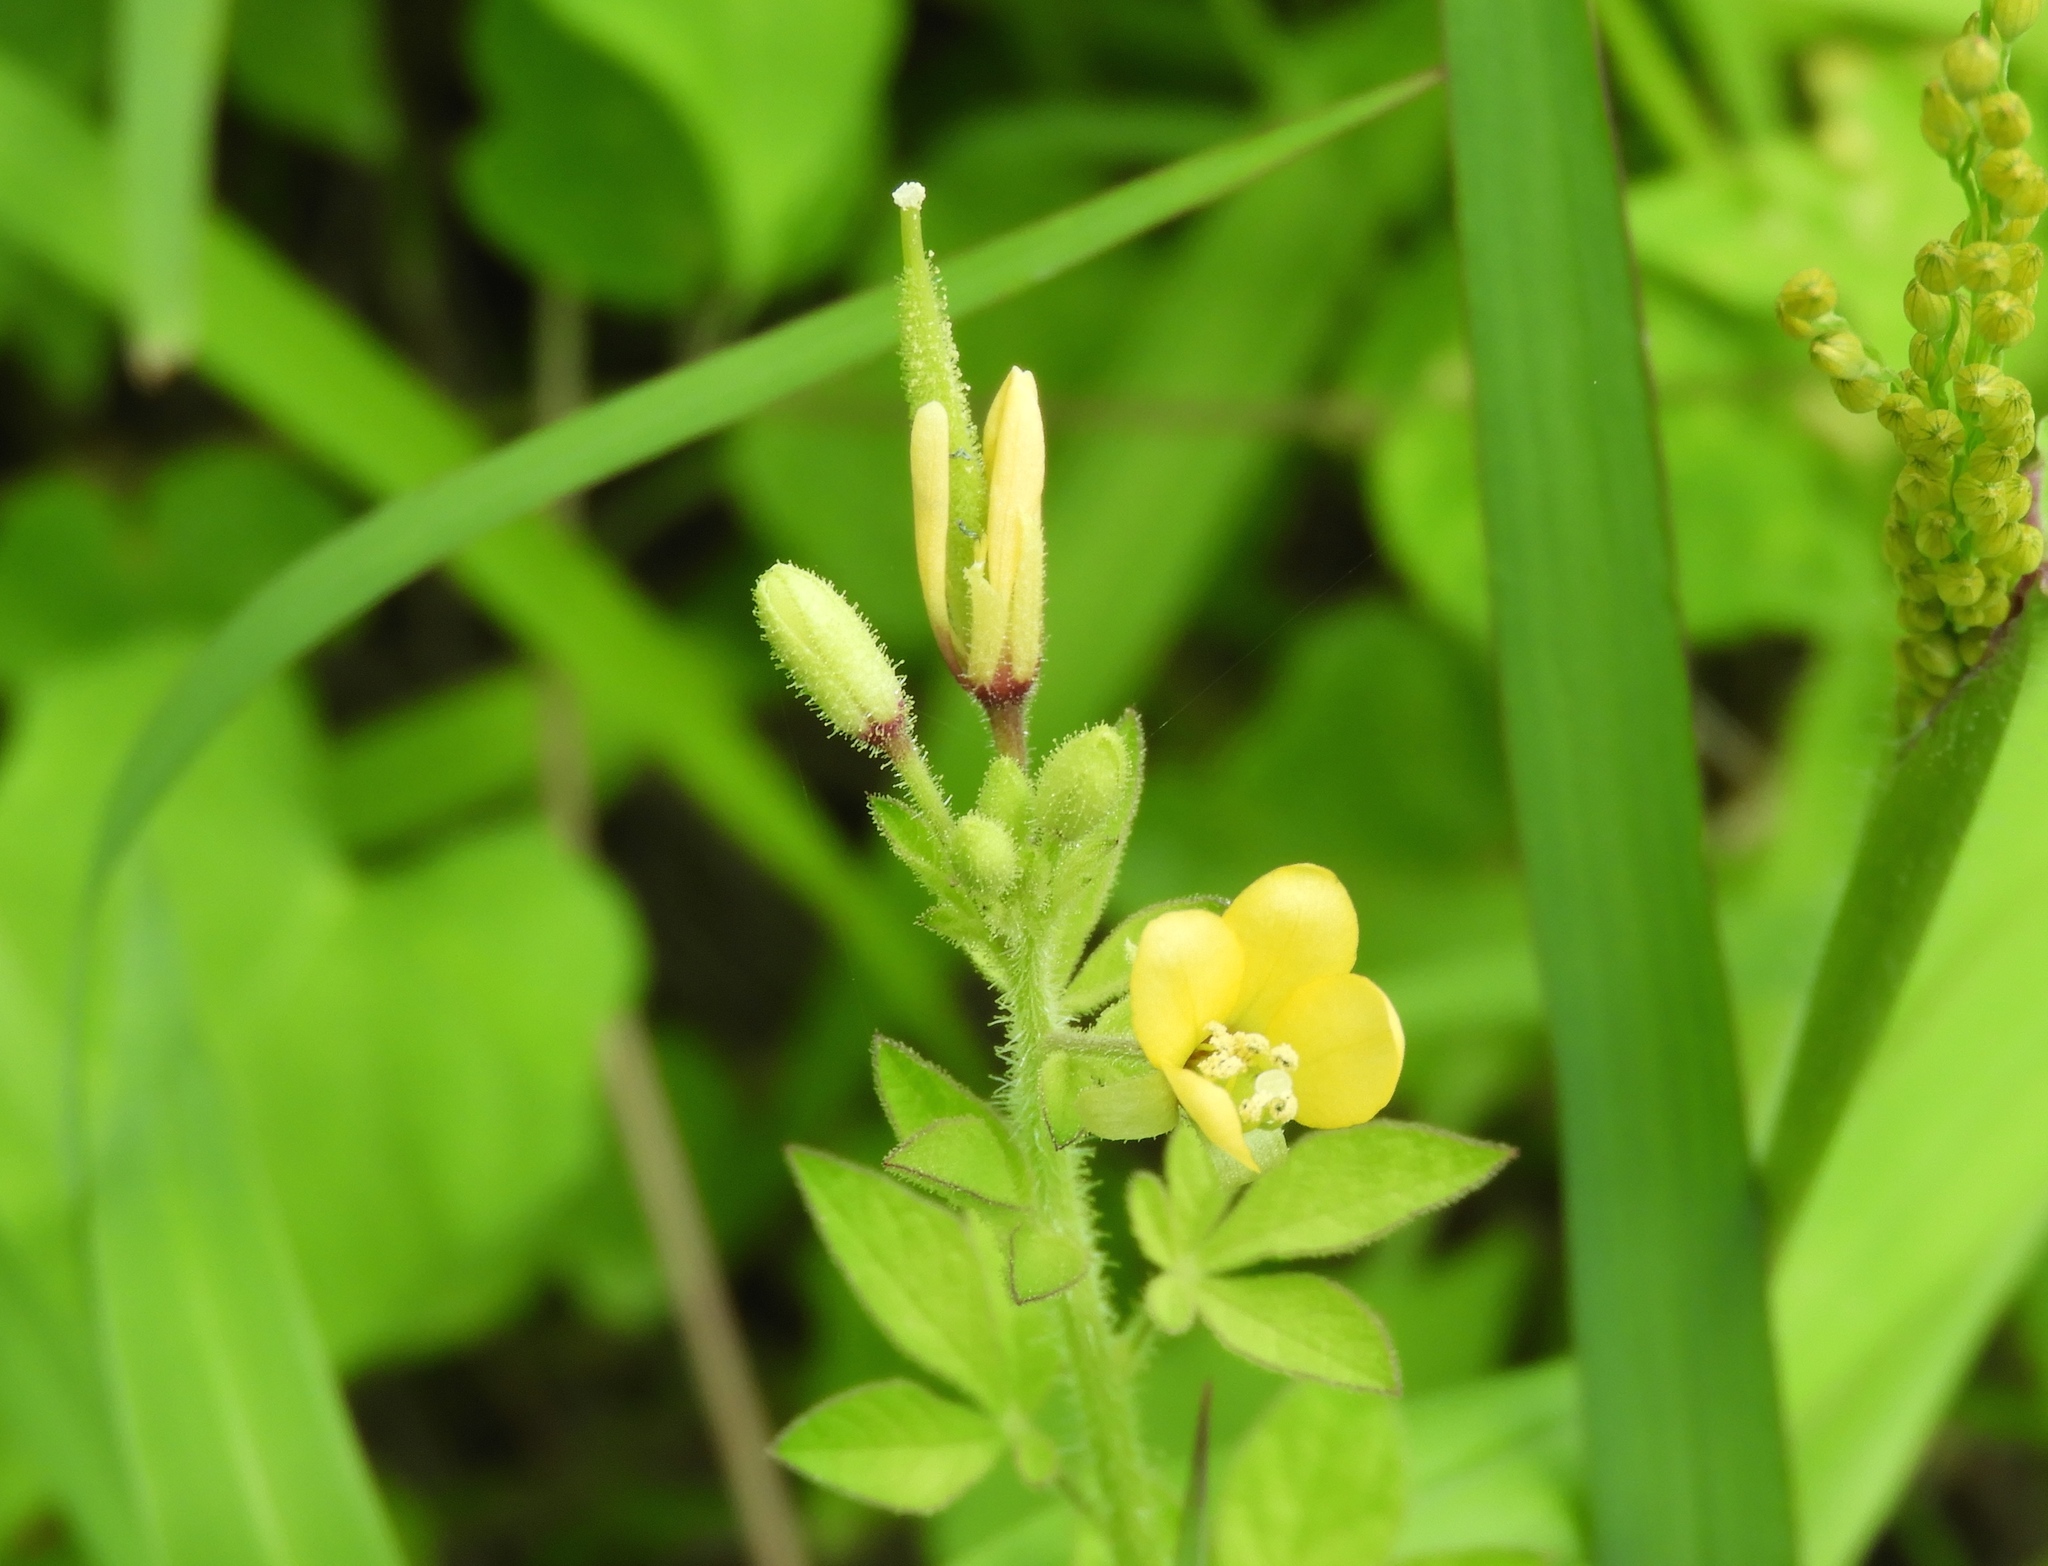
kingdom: Plantae
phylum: Tracheophyta
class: Magnoliopsida
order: Brassicales
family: Cleomaceae
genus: Arivela
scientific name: Arivela viscosa
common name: Asian spiderflower
